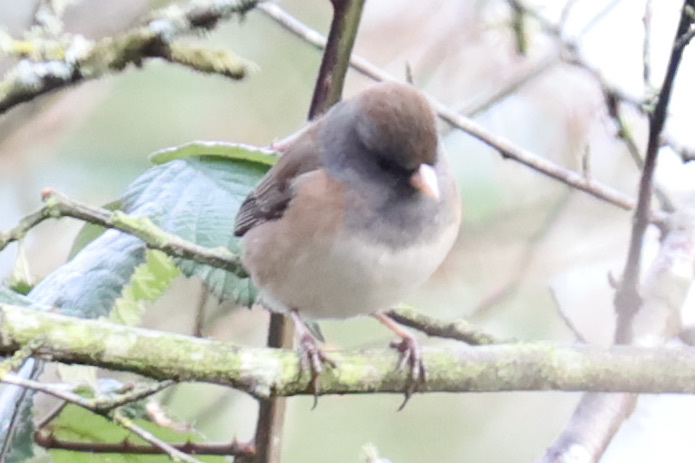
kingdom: Animalia
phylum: Chordata
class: Aves
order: Passeriformes
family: Passerellidae
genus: Junco
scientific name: Junco hyemalis
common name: Dark-eyed junco
